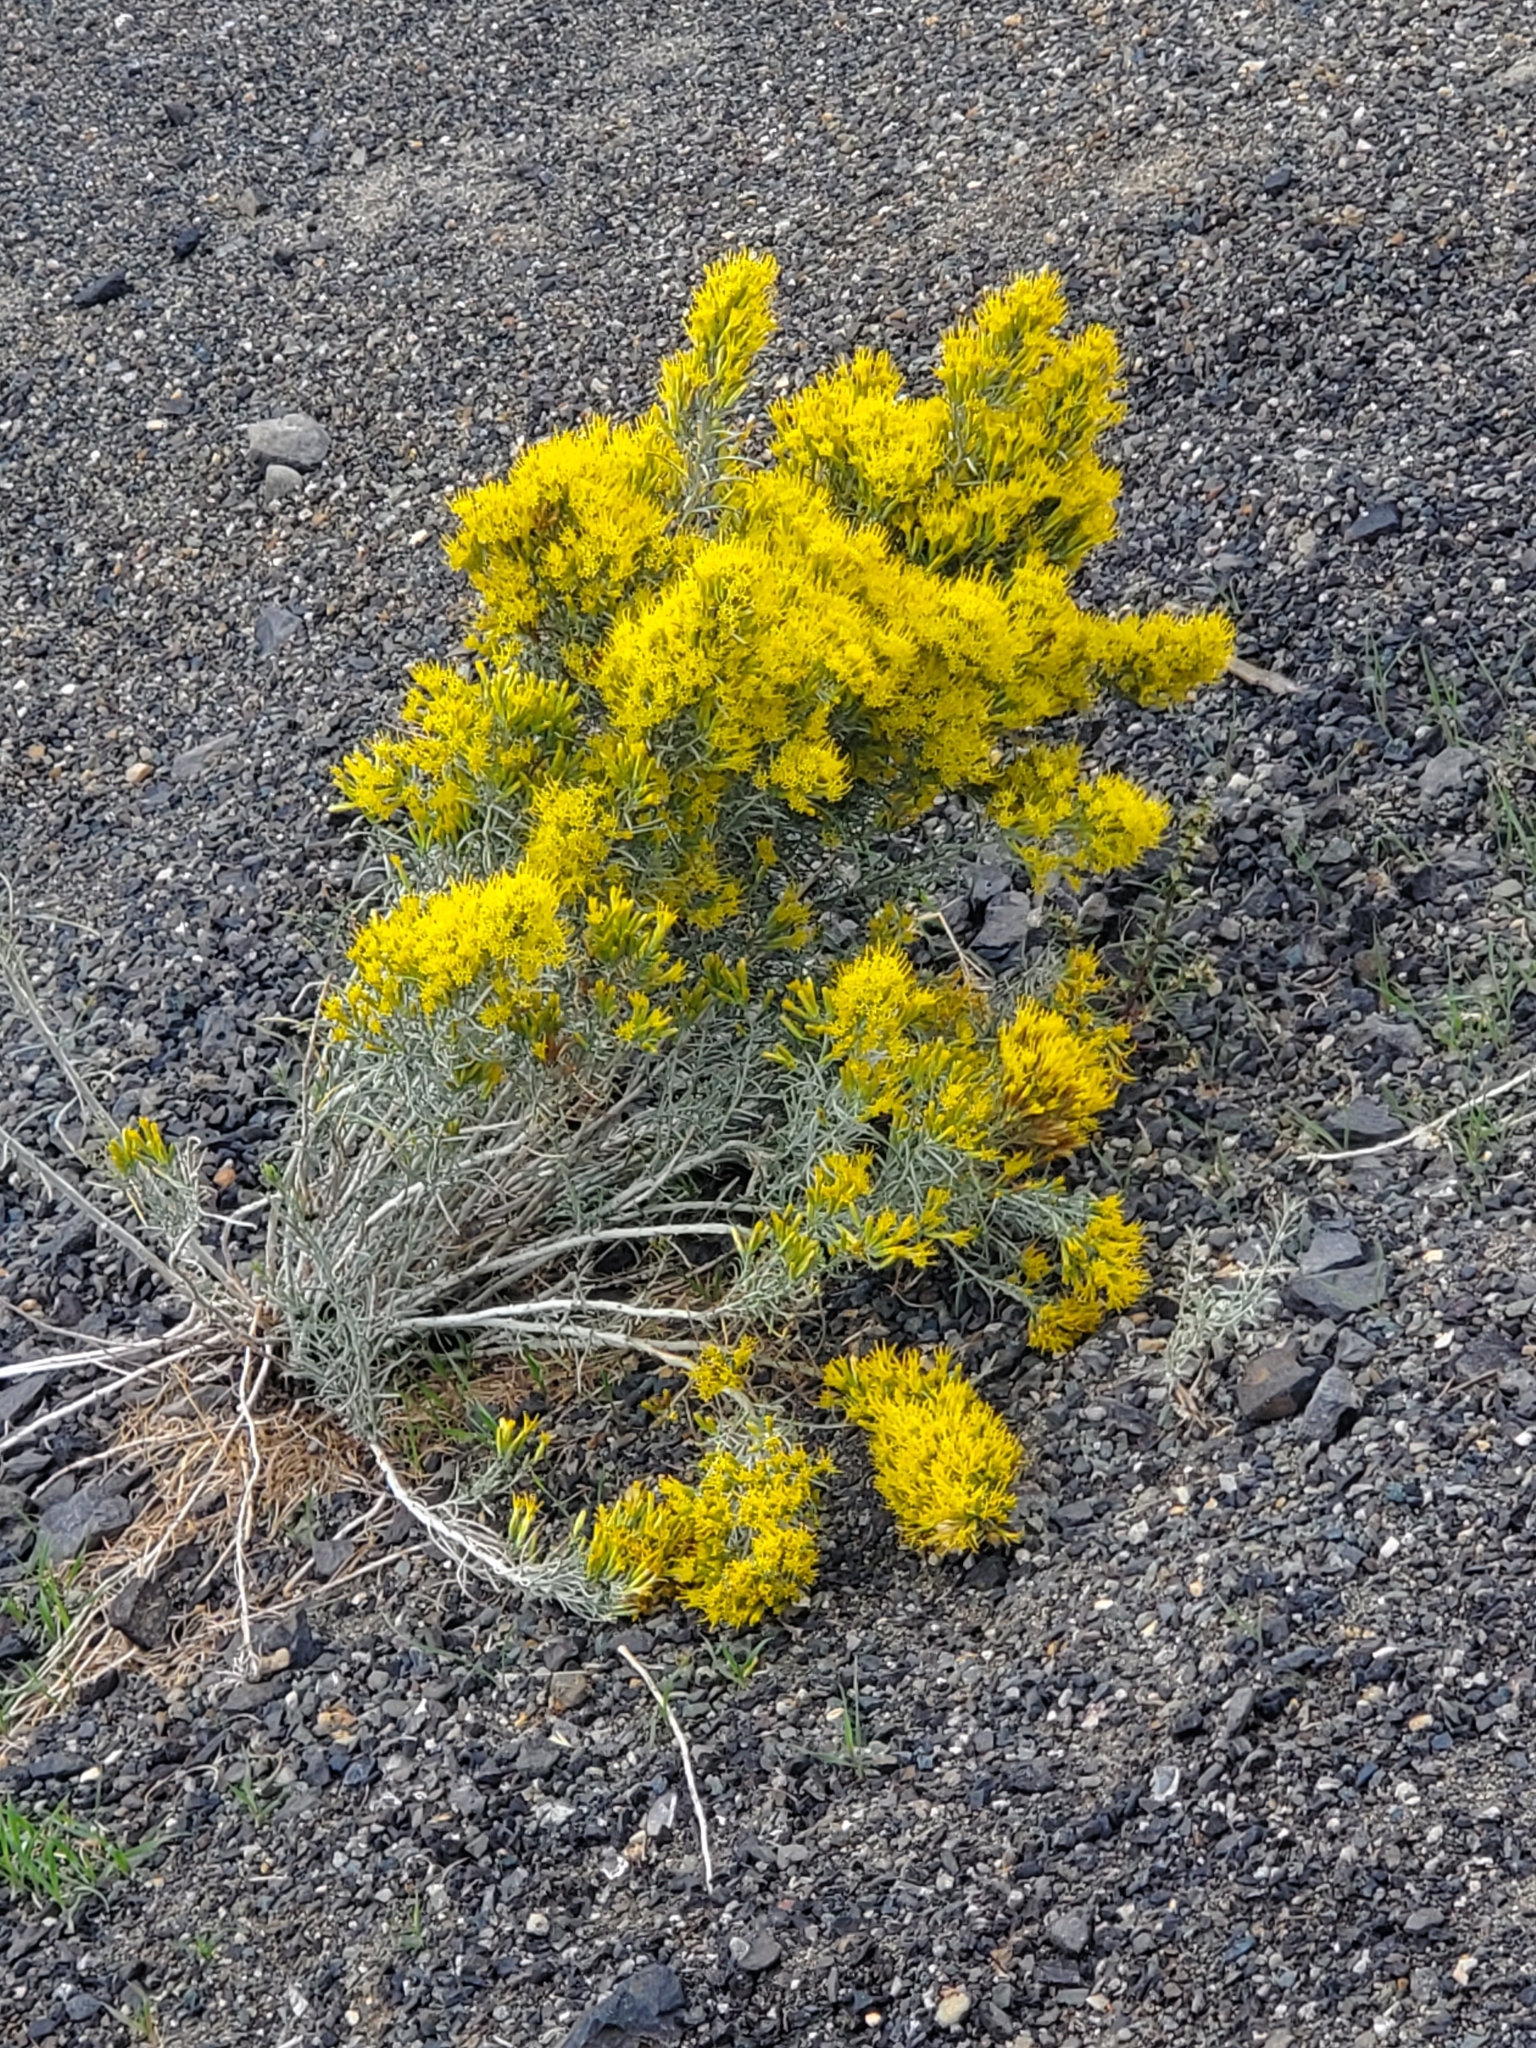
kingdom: Plantae
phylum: Tracheophyta
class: Magnoliopsida
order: Asterales
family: Asteraceae
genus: Ericameria
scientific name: Ericameria nauseosa
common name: Rubber rabbitbrush
